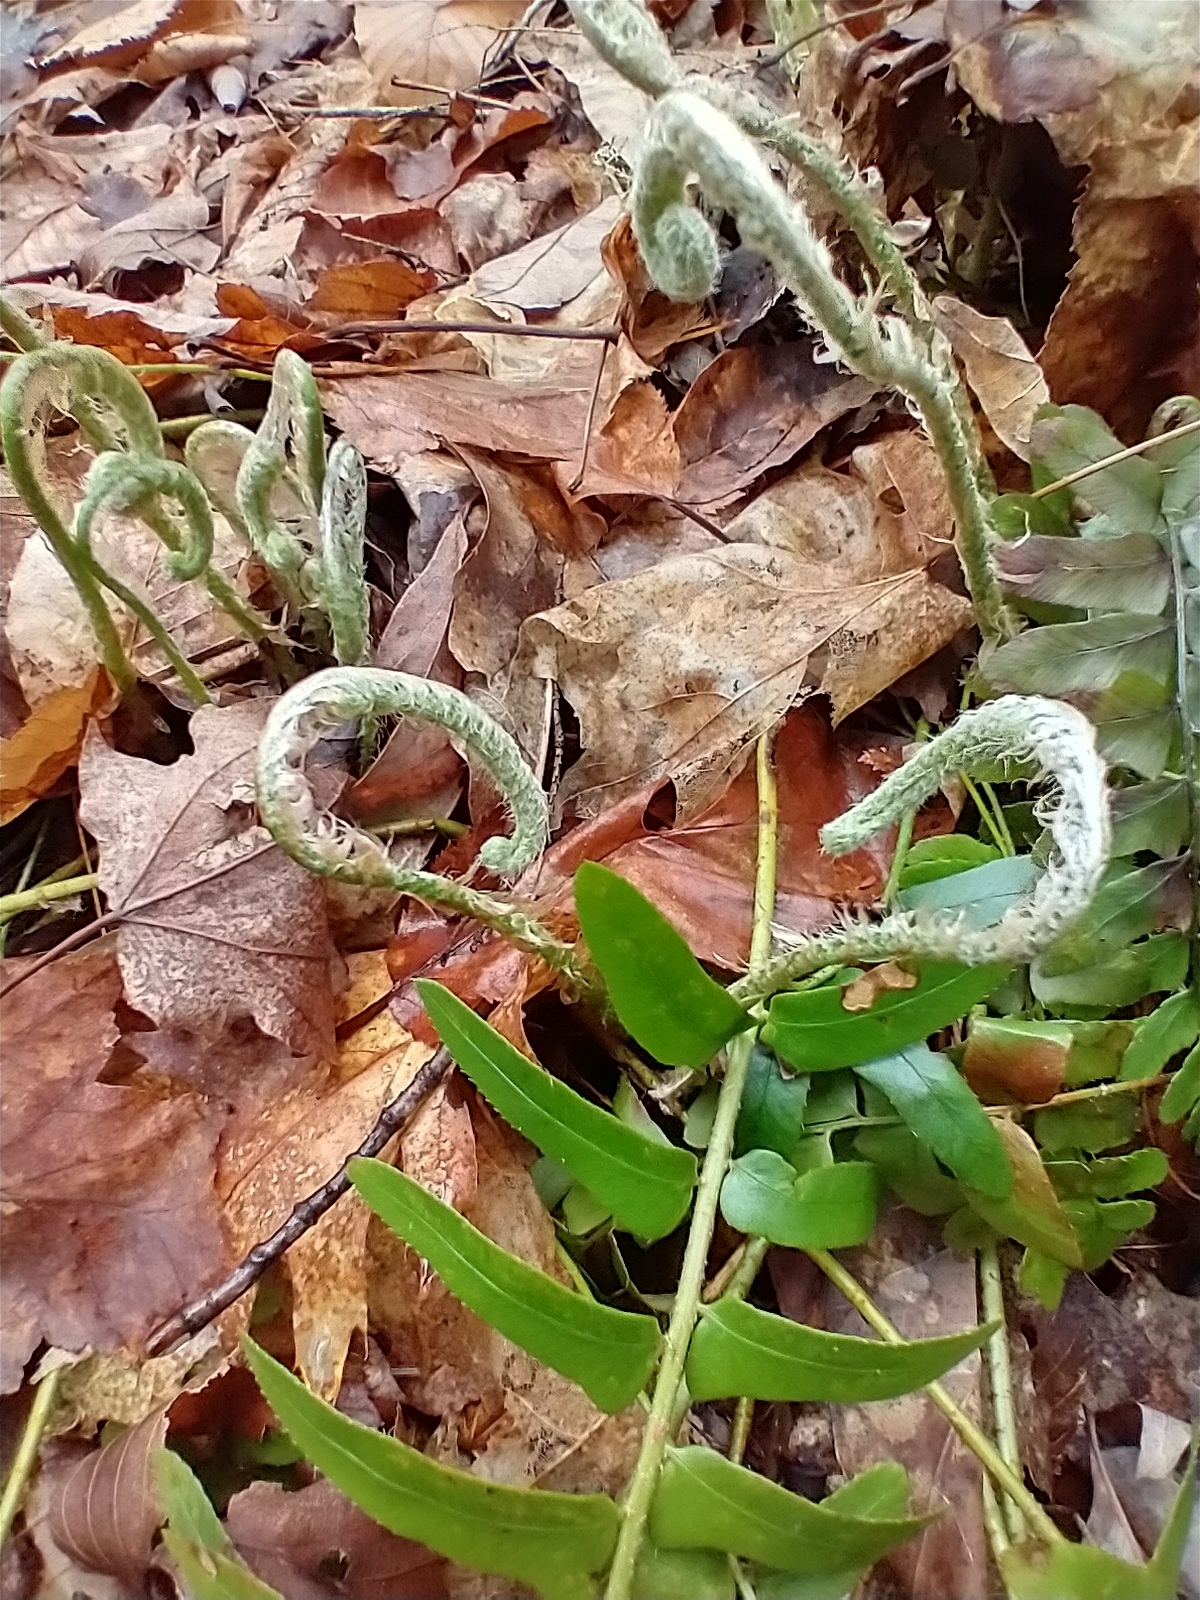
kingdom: Plantae
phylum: Tracheophyta
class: Polypodiopsida
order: Polypodiales
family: Dryopteridaceae
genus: Polystichum
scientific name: Polystichum acrostichoides
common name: Christmas fern
